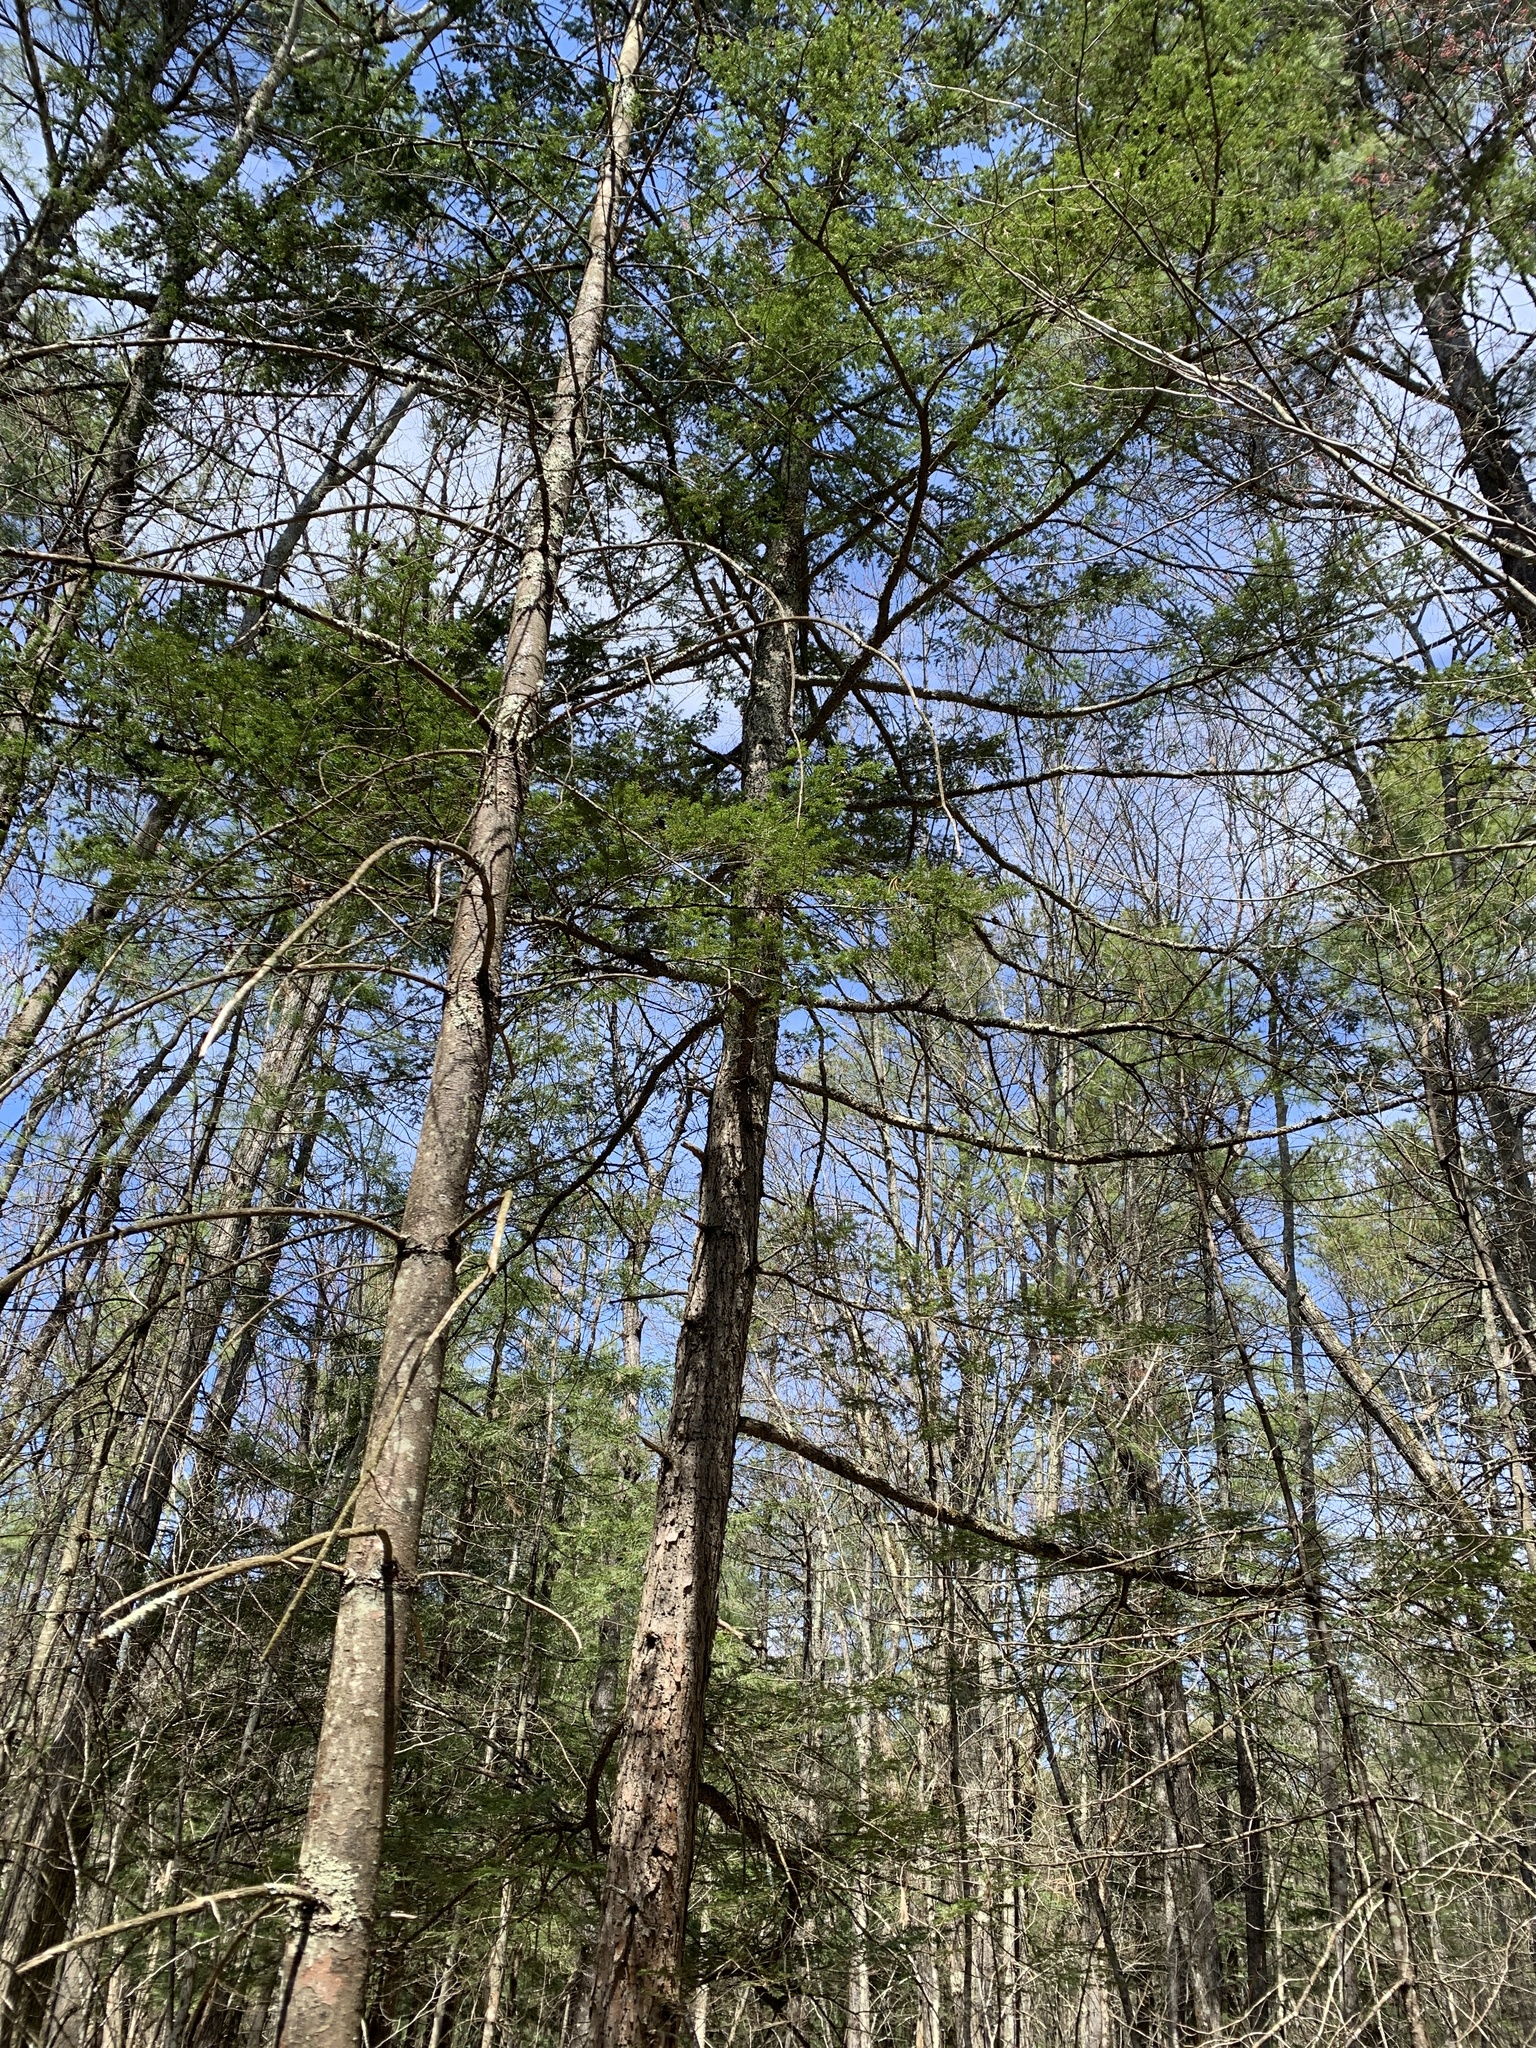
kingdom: Plantae
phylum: Tracheophyta
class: Pinopsida
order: Pinales
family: Pinaceae
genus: Tsuga
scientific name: Tsuga canadensis
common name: Eastern hemlock
